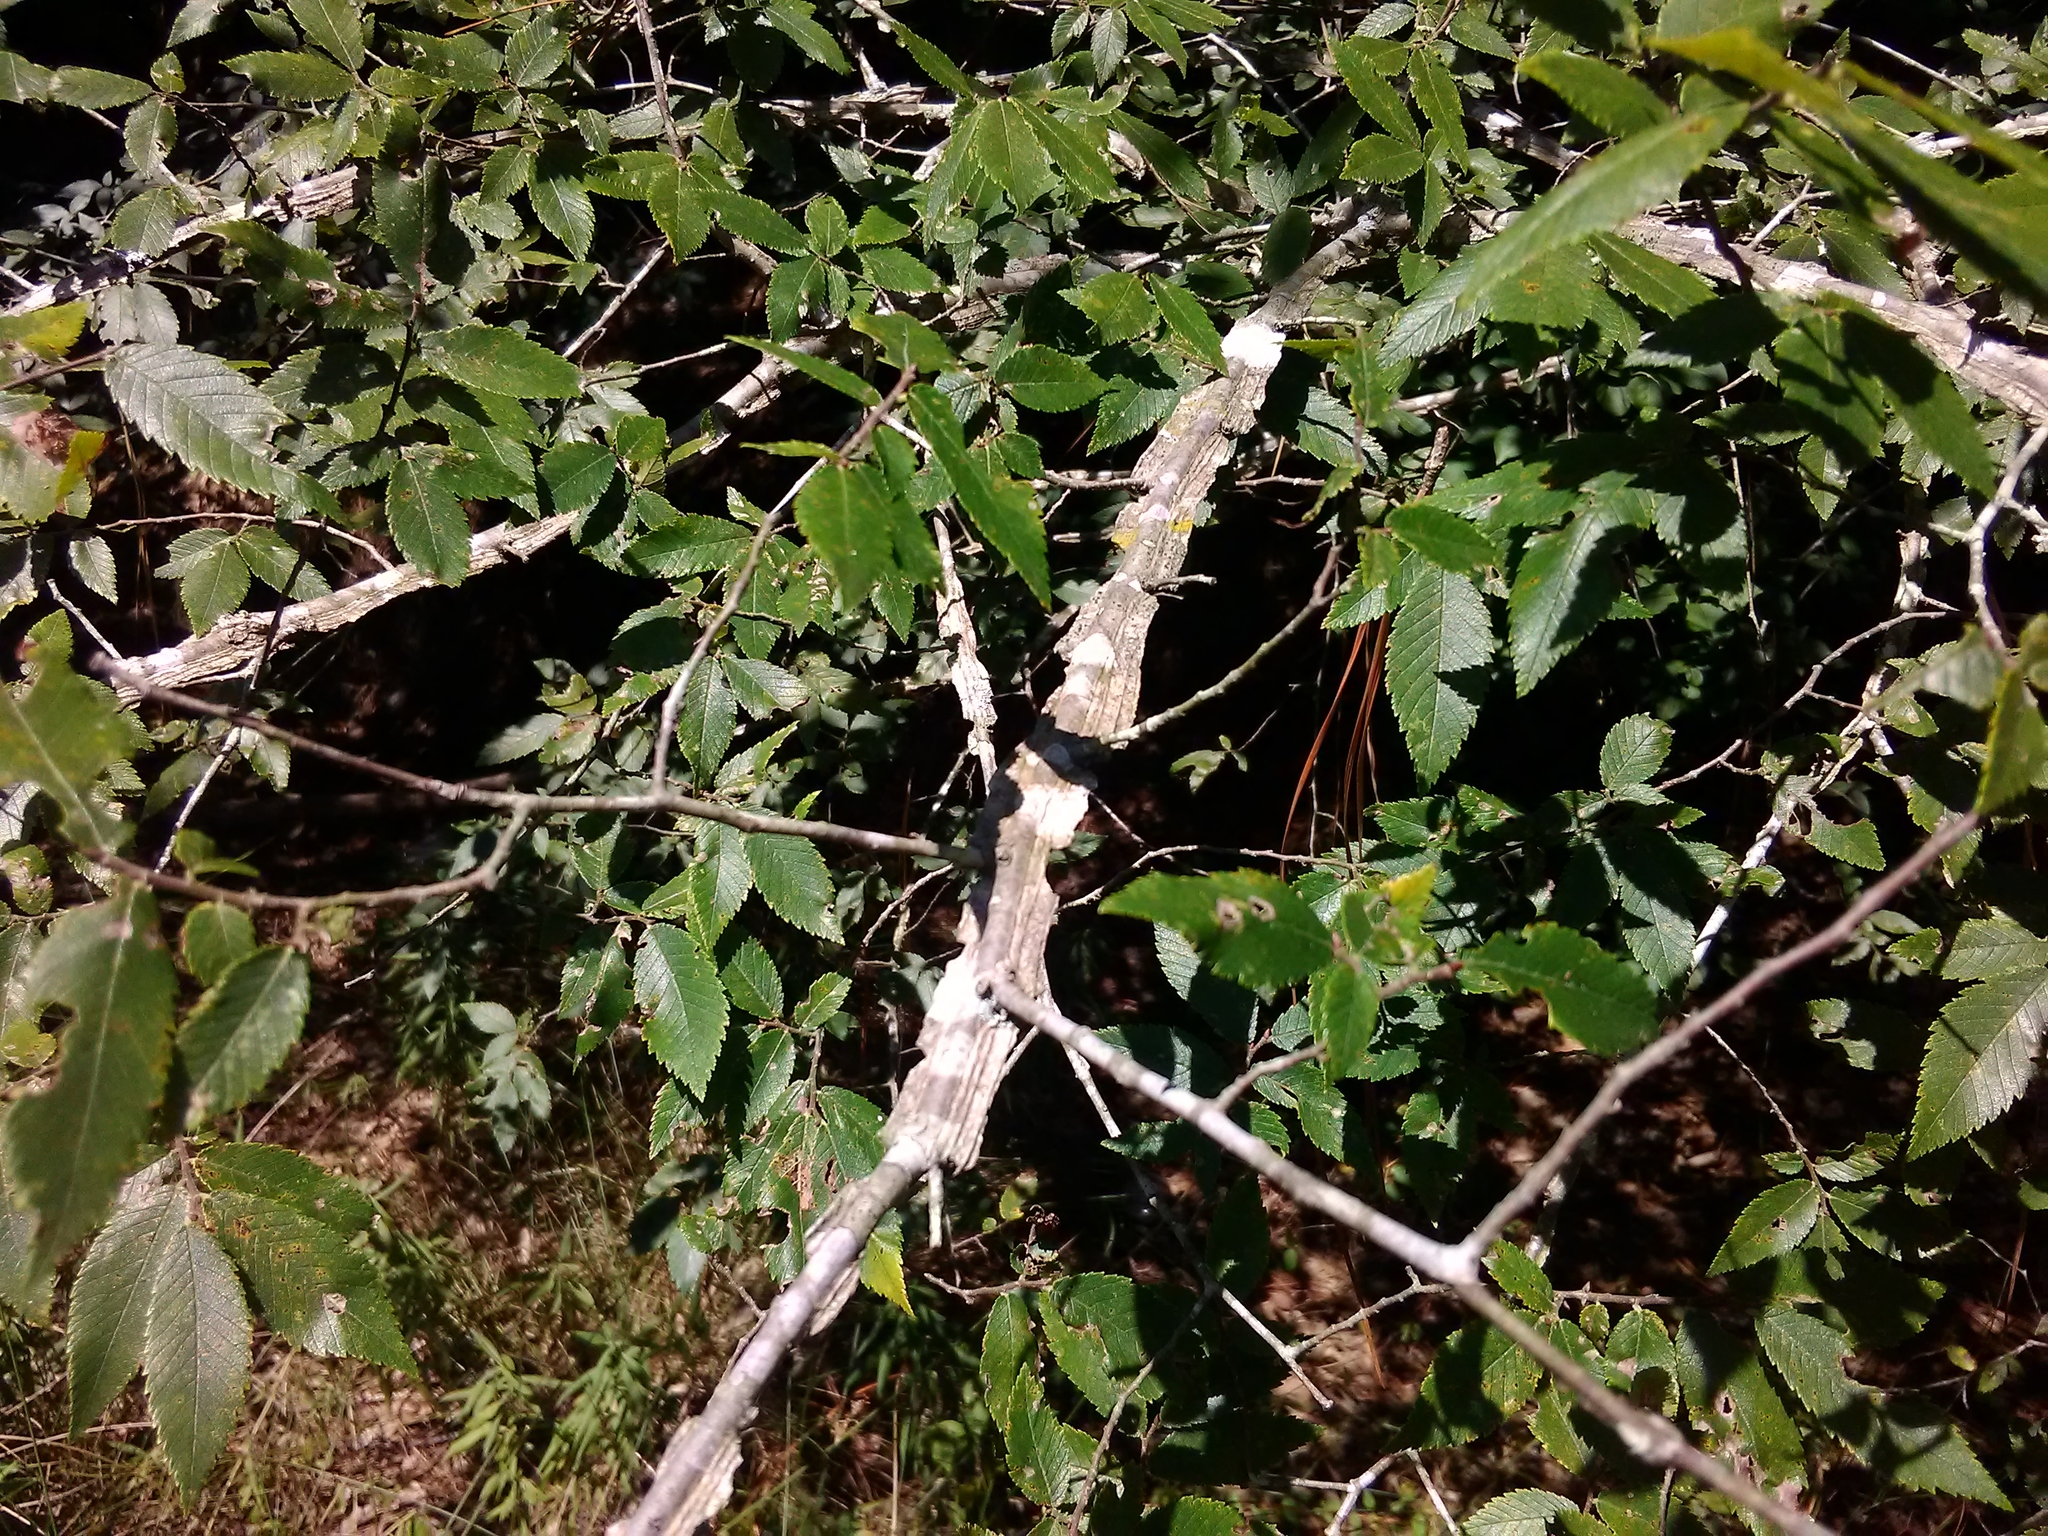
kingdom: Plantae
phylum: Tracheophyta
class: Magnoliopsida
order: Rosales
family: Ulmaceae
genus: Ulmus
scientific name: Ulmus alata
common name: Winged elm
